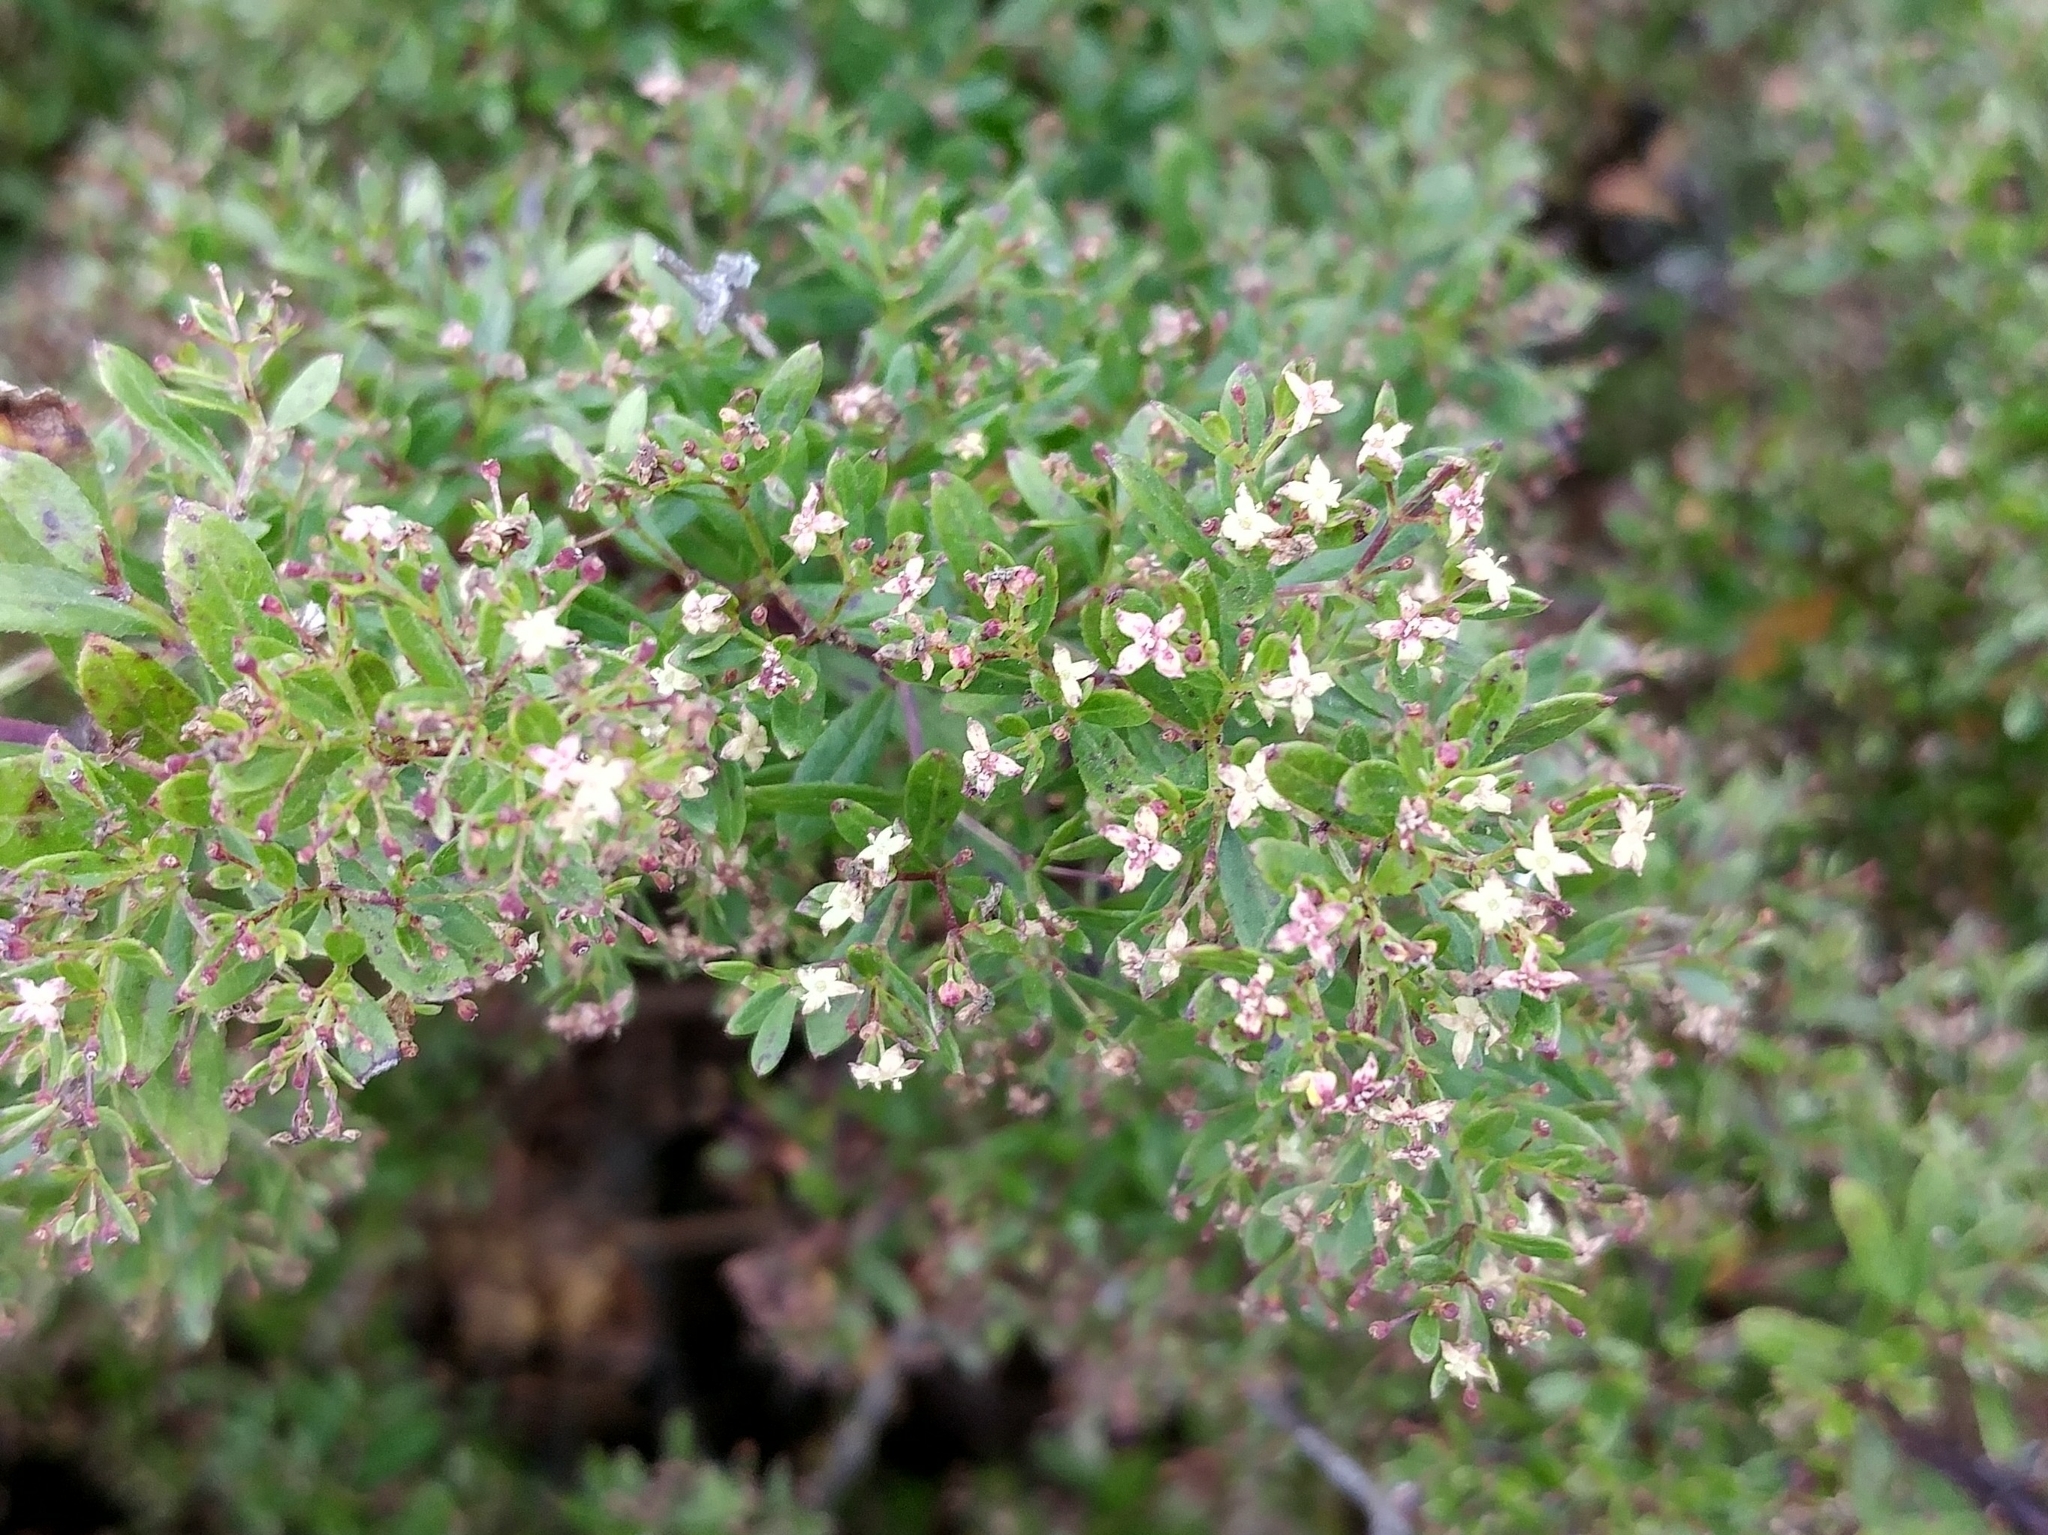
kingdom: Plantae
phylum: Tracheophyta
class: Magnoliopsida
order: Gentianales
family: Rubiaceae
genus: Galium
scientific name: Galium catalinense
